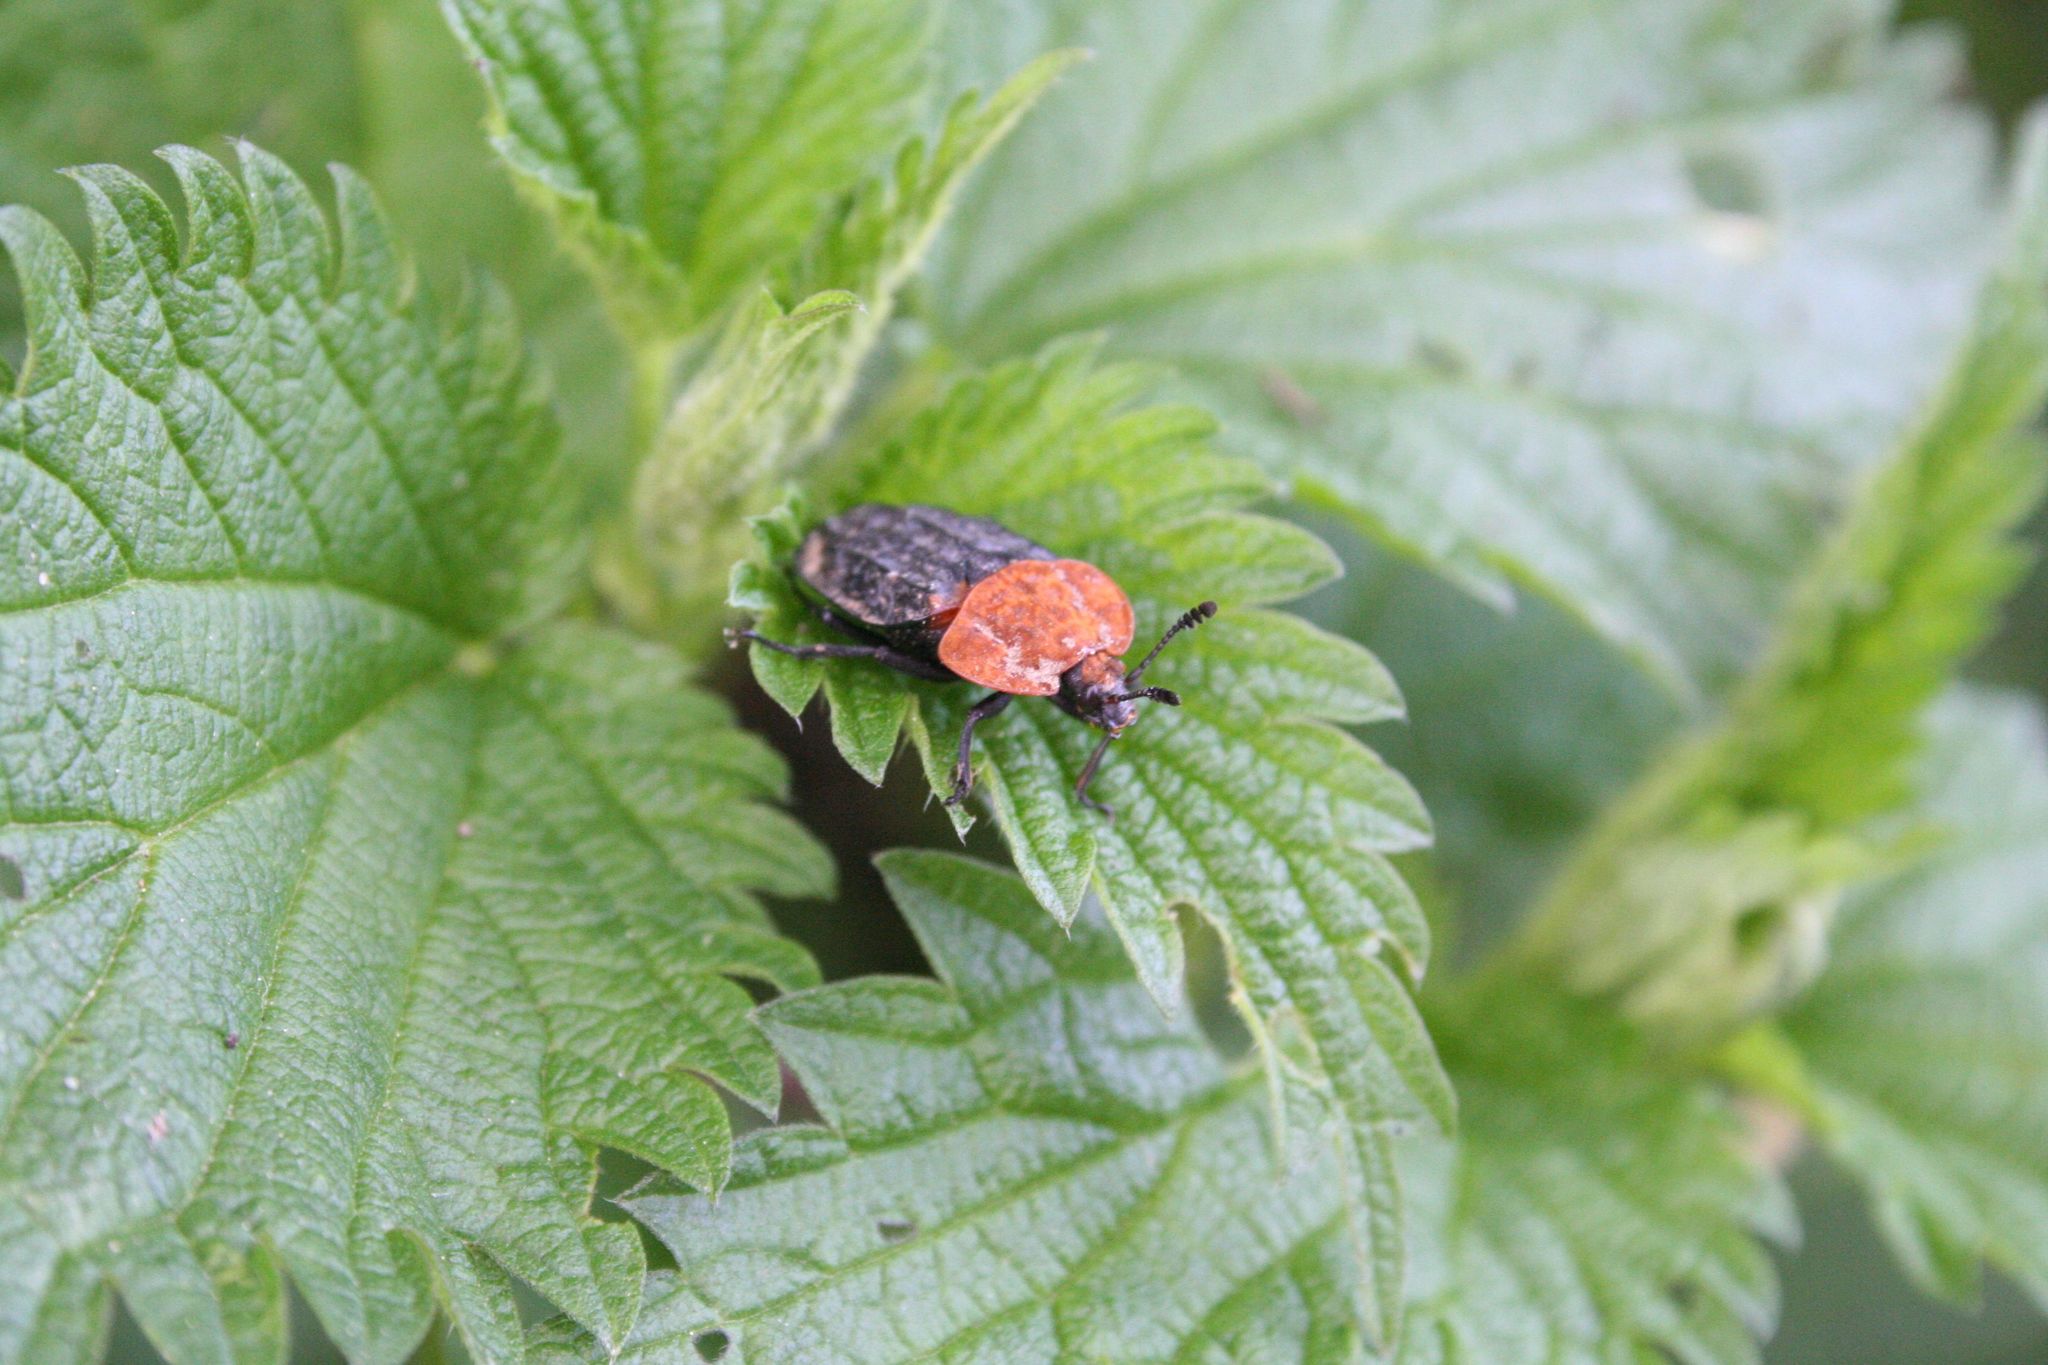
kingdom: Animalia
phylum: Arthropoda
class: Insecta
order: Coleoptera
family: Staphylinidae
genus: Oiceoptoma
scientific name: Oiceoptoma thoracicum
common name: Red-breasted carrion beetle
